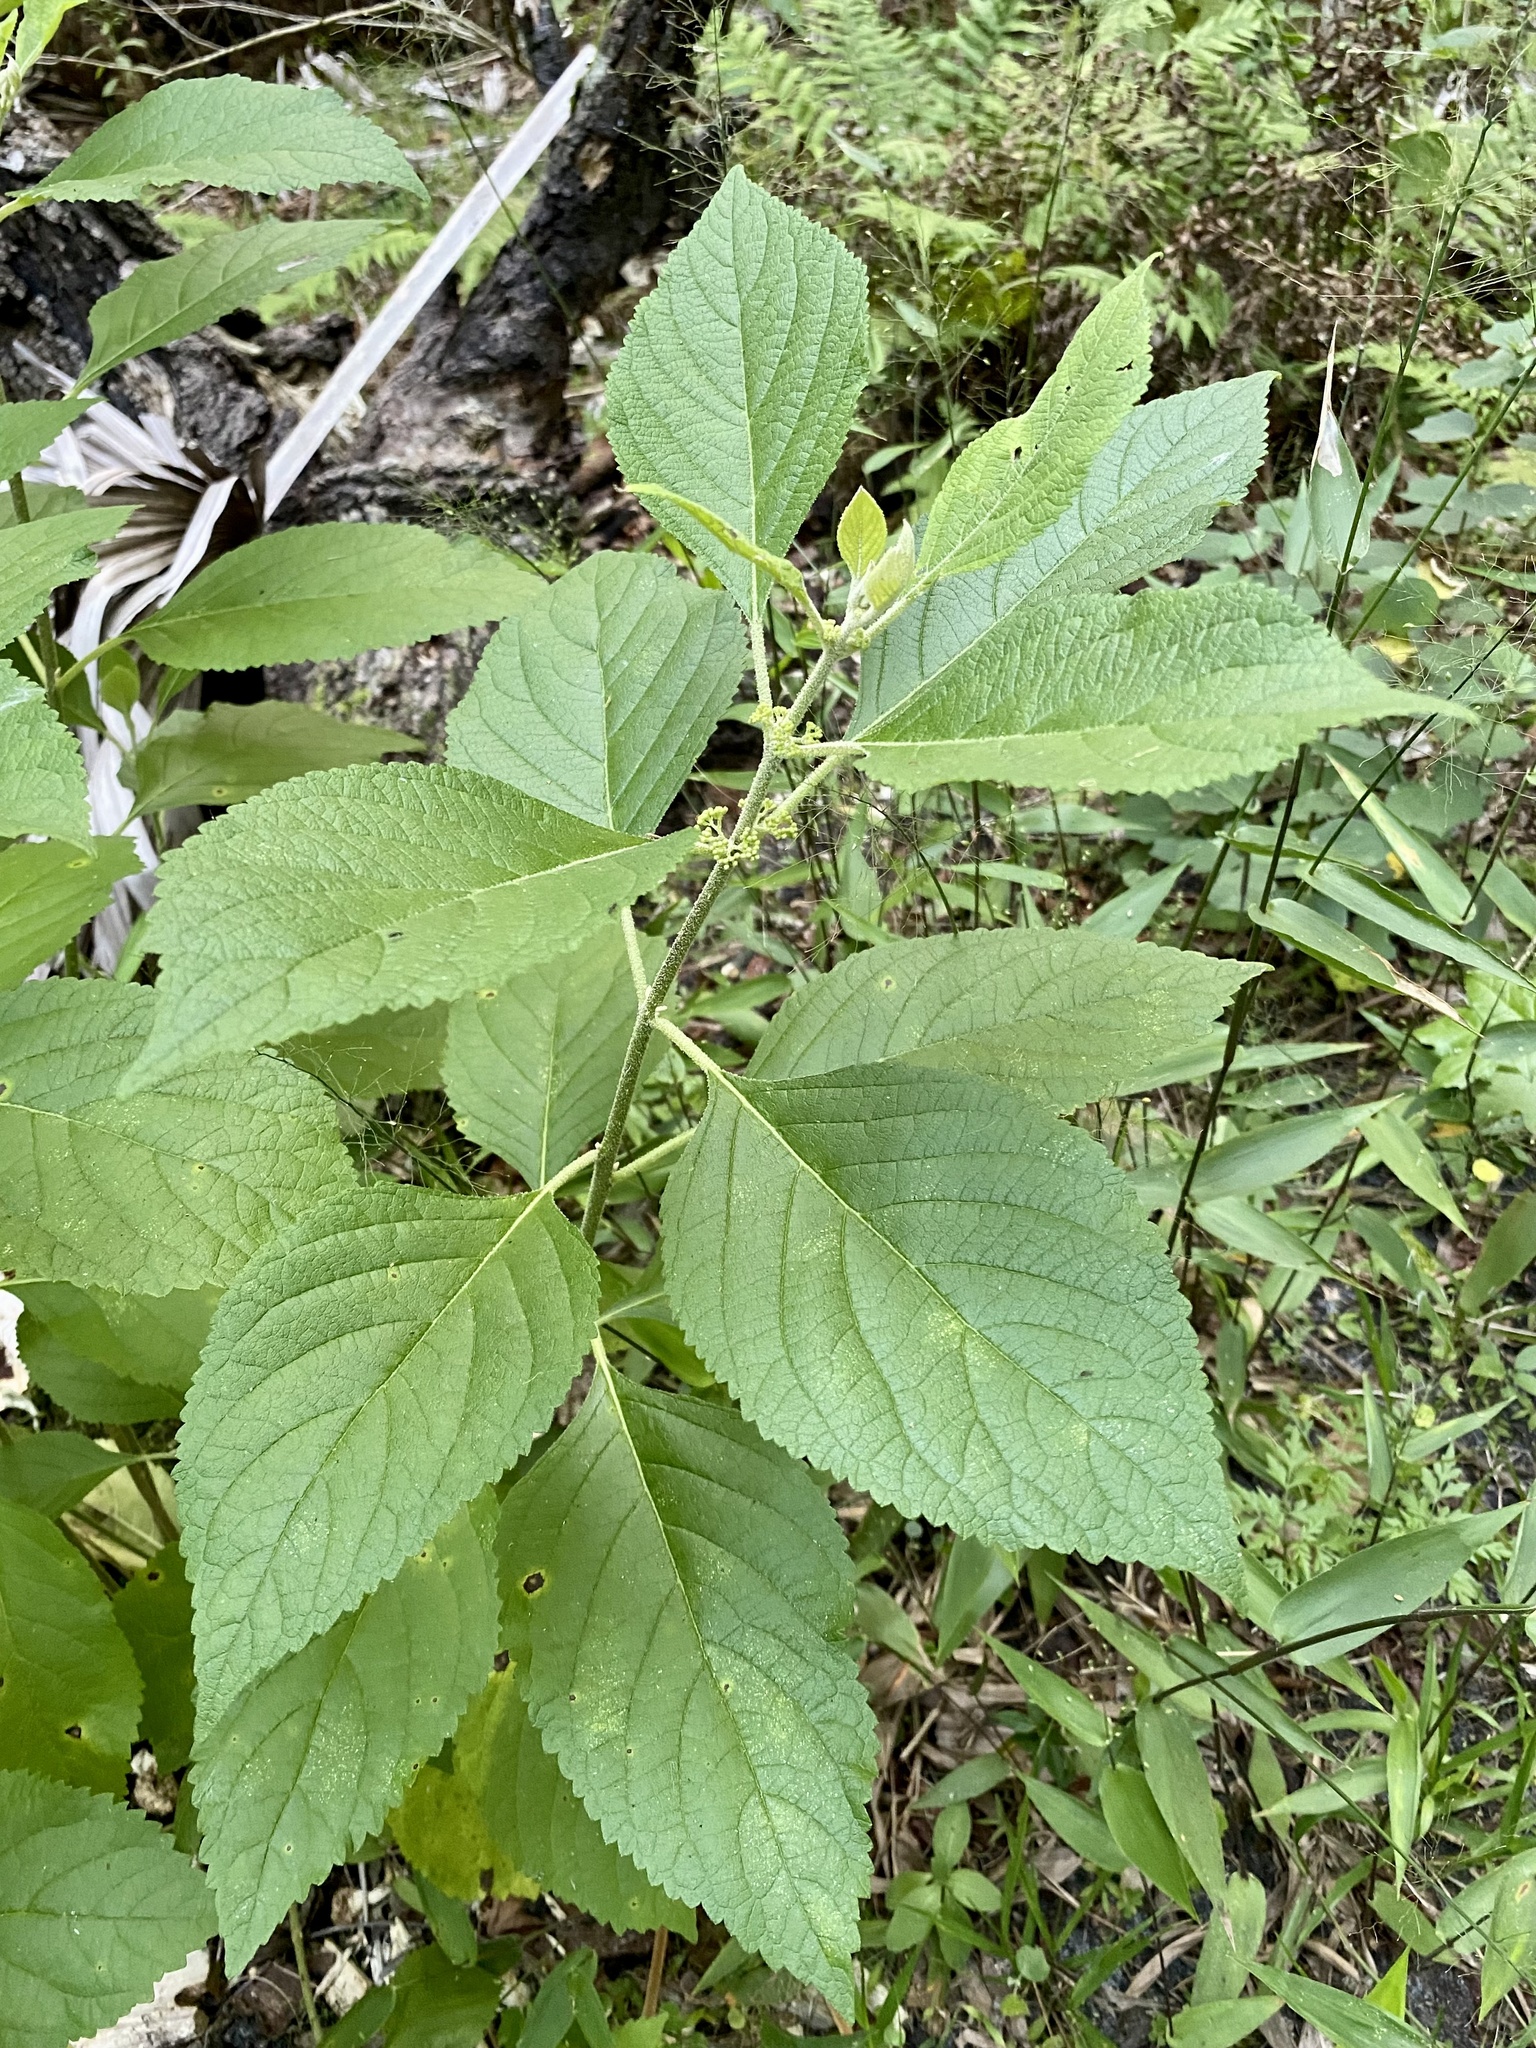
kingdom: Plantae
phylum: Tracheophyta
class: Magnoliopsida
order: Lamiales
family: Lamiaceae
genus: Callicarpa
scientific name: Callicarpa americana
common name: American beautyberry
